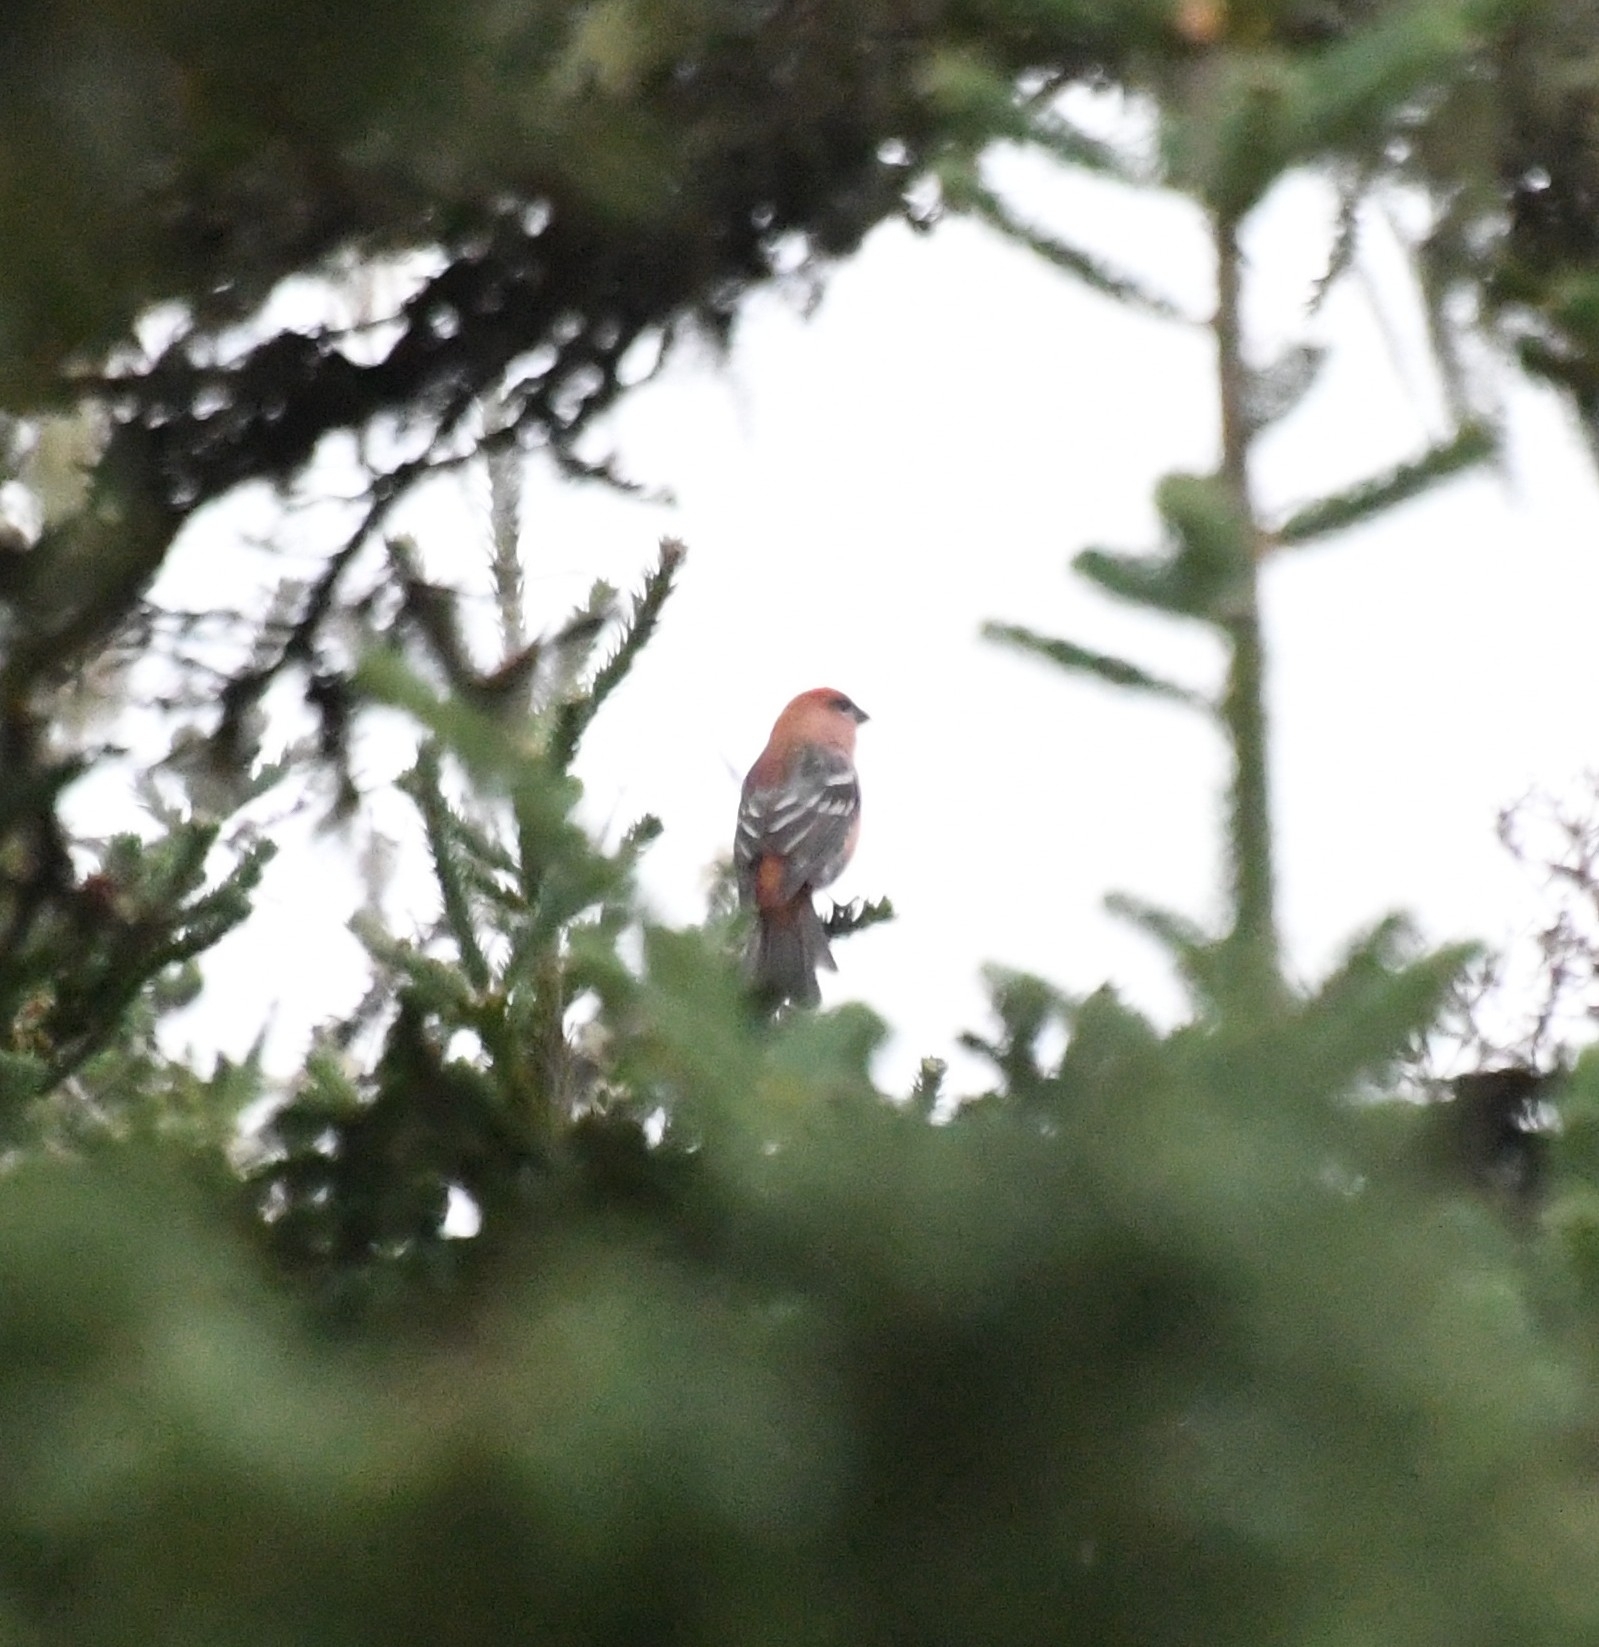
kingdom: Animalia
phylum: Chordata
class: Aves
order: Passeriformes
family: Fringillidae
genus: Pinicola
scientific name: Pinicola enucleator
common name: Pine grosbeak
